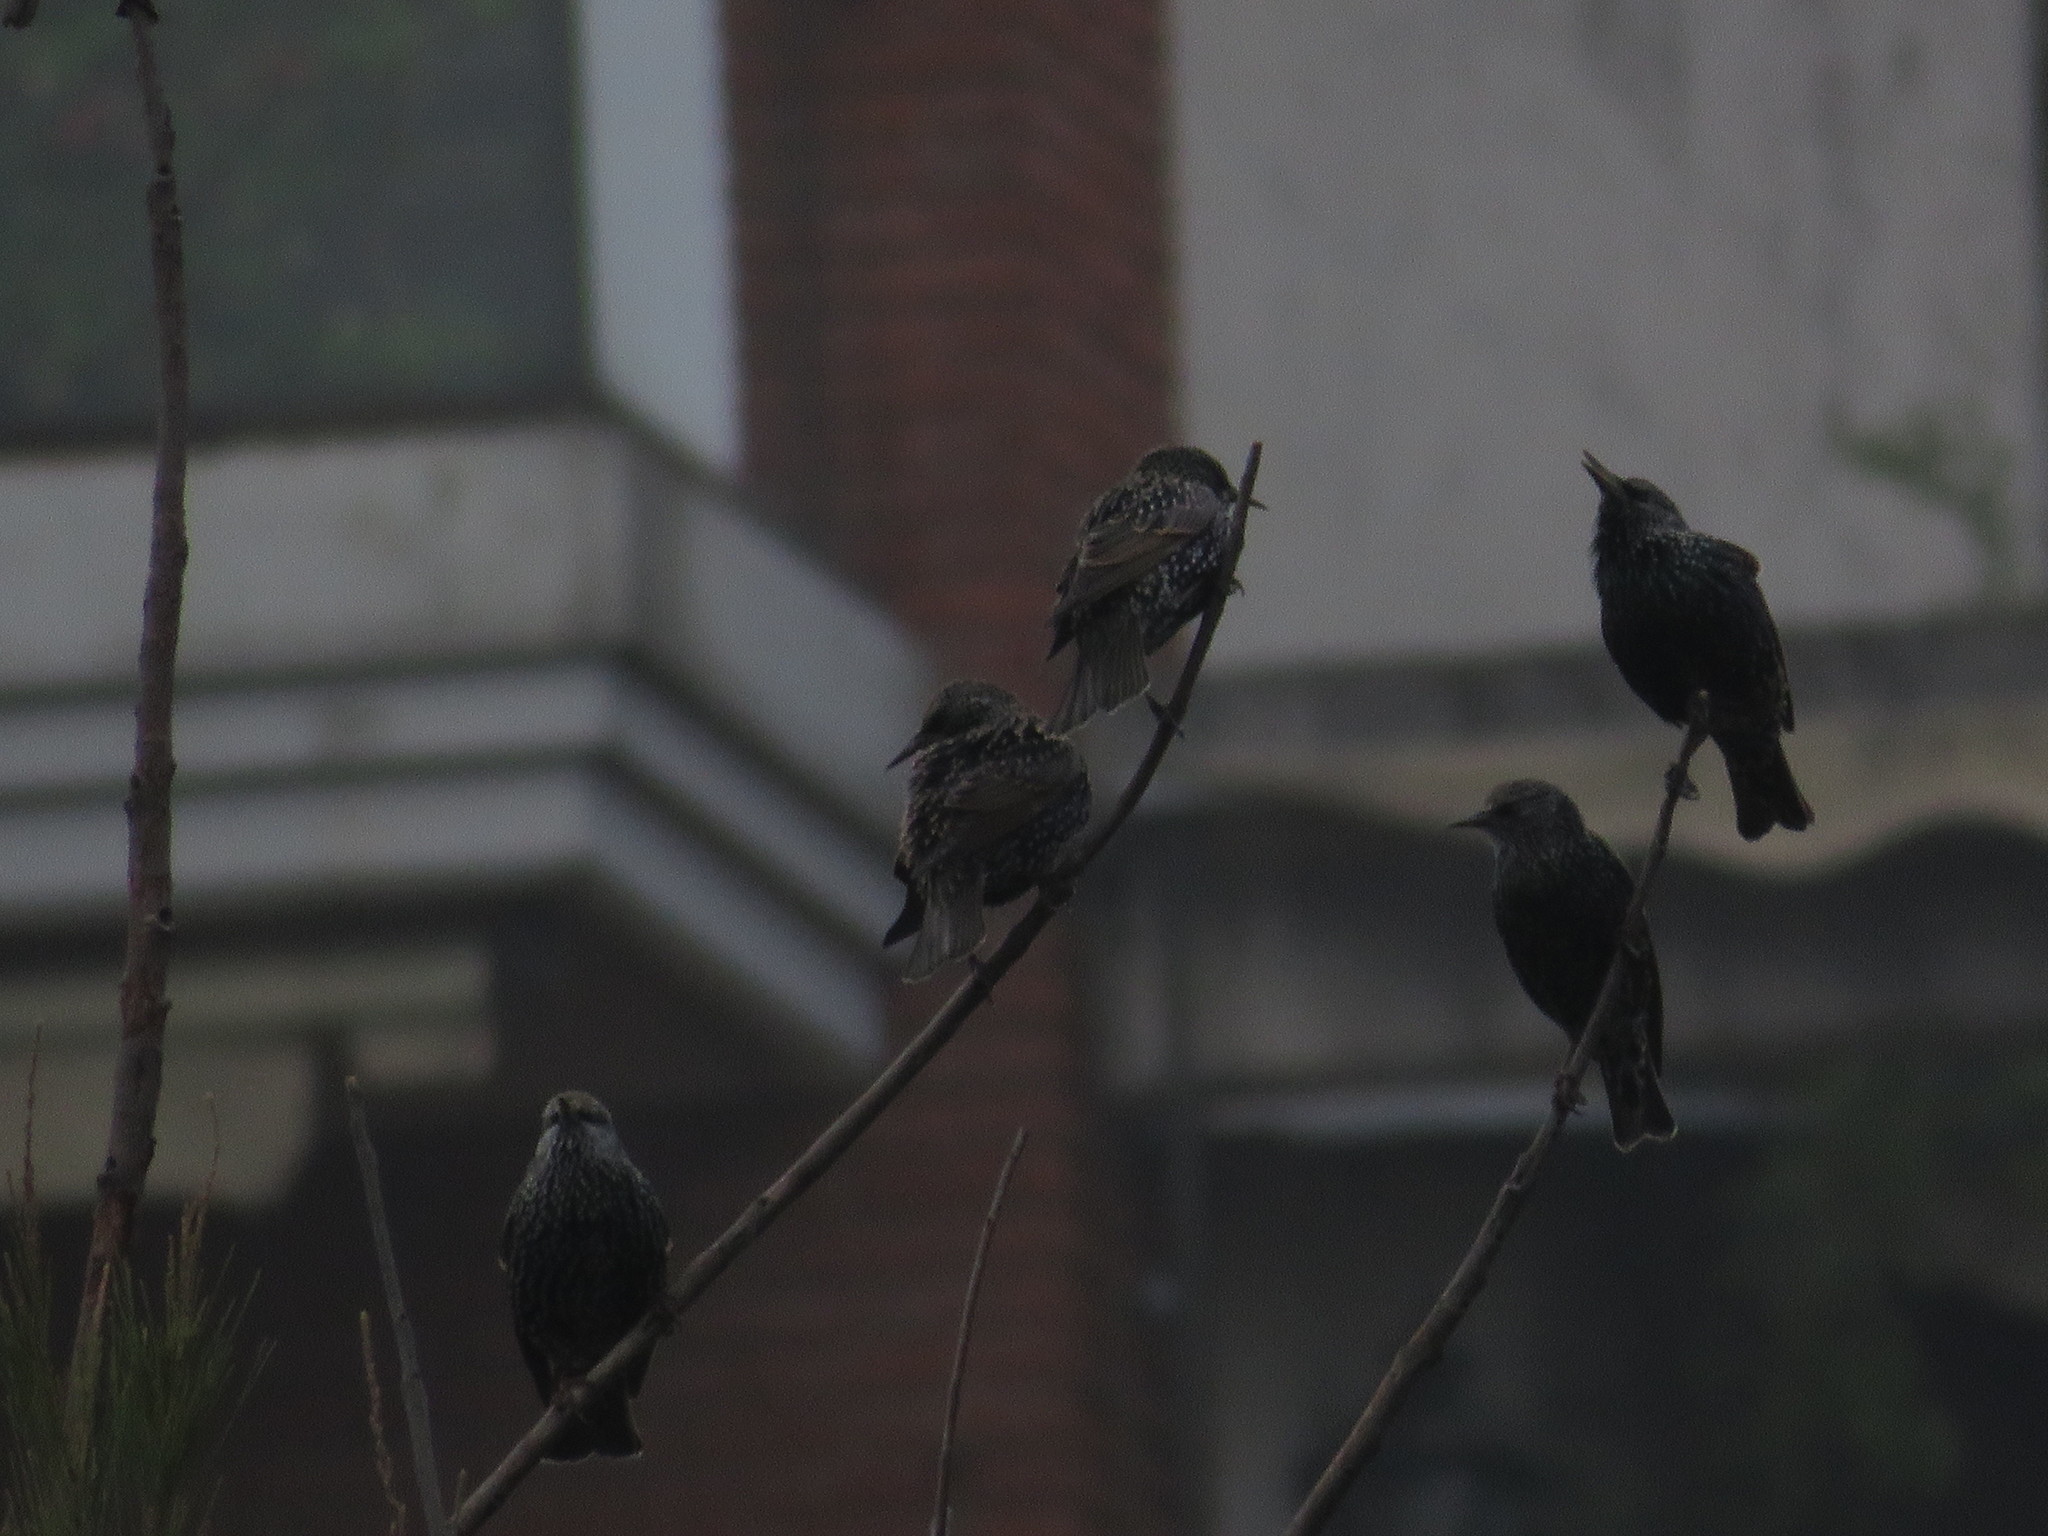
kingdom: Animalia
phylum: Chordata
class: Aves
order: Passeriformes
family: Sturnidae
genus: Sturnus
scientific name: Sturnus vulgaris
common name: Common starling
